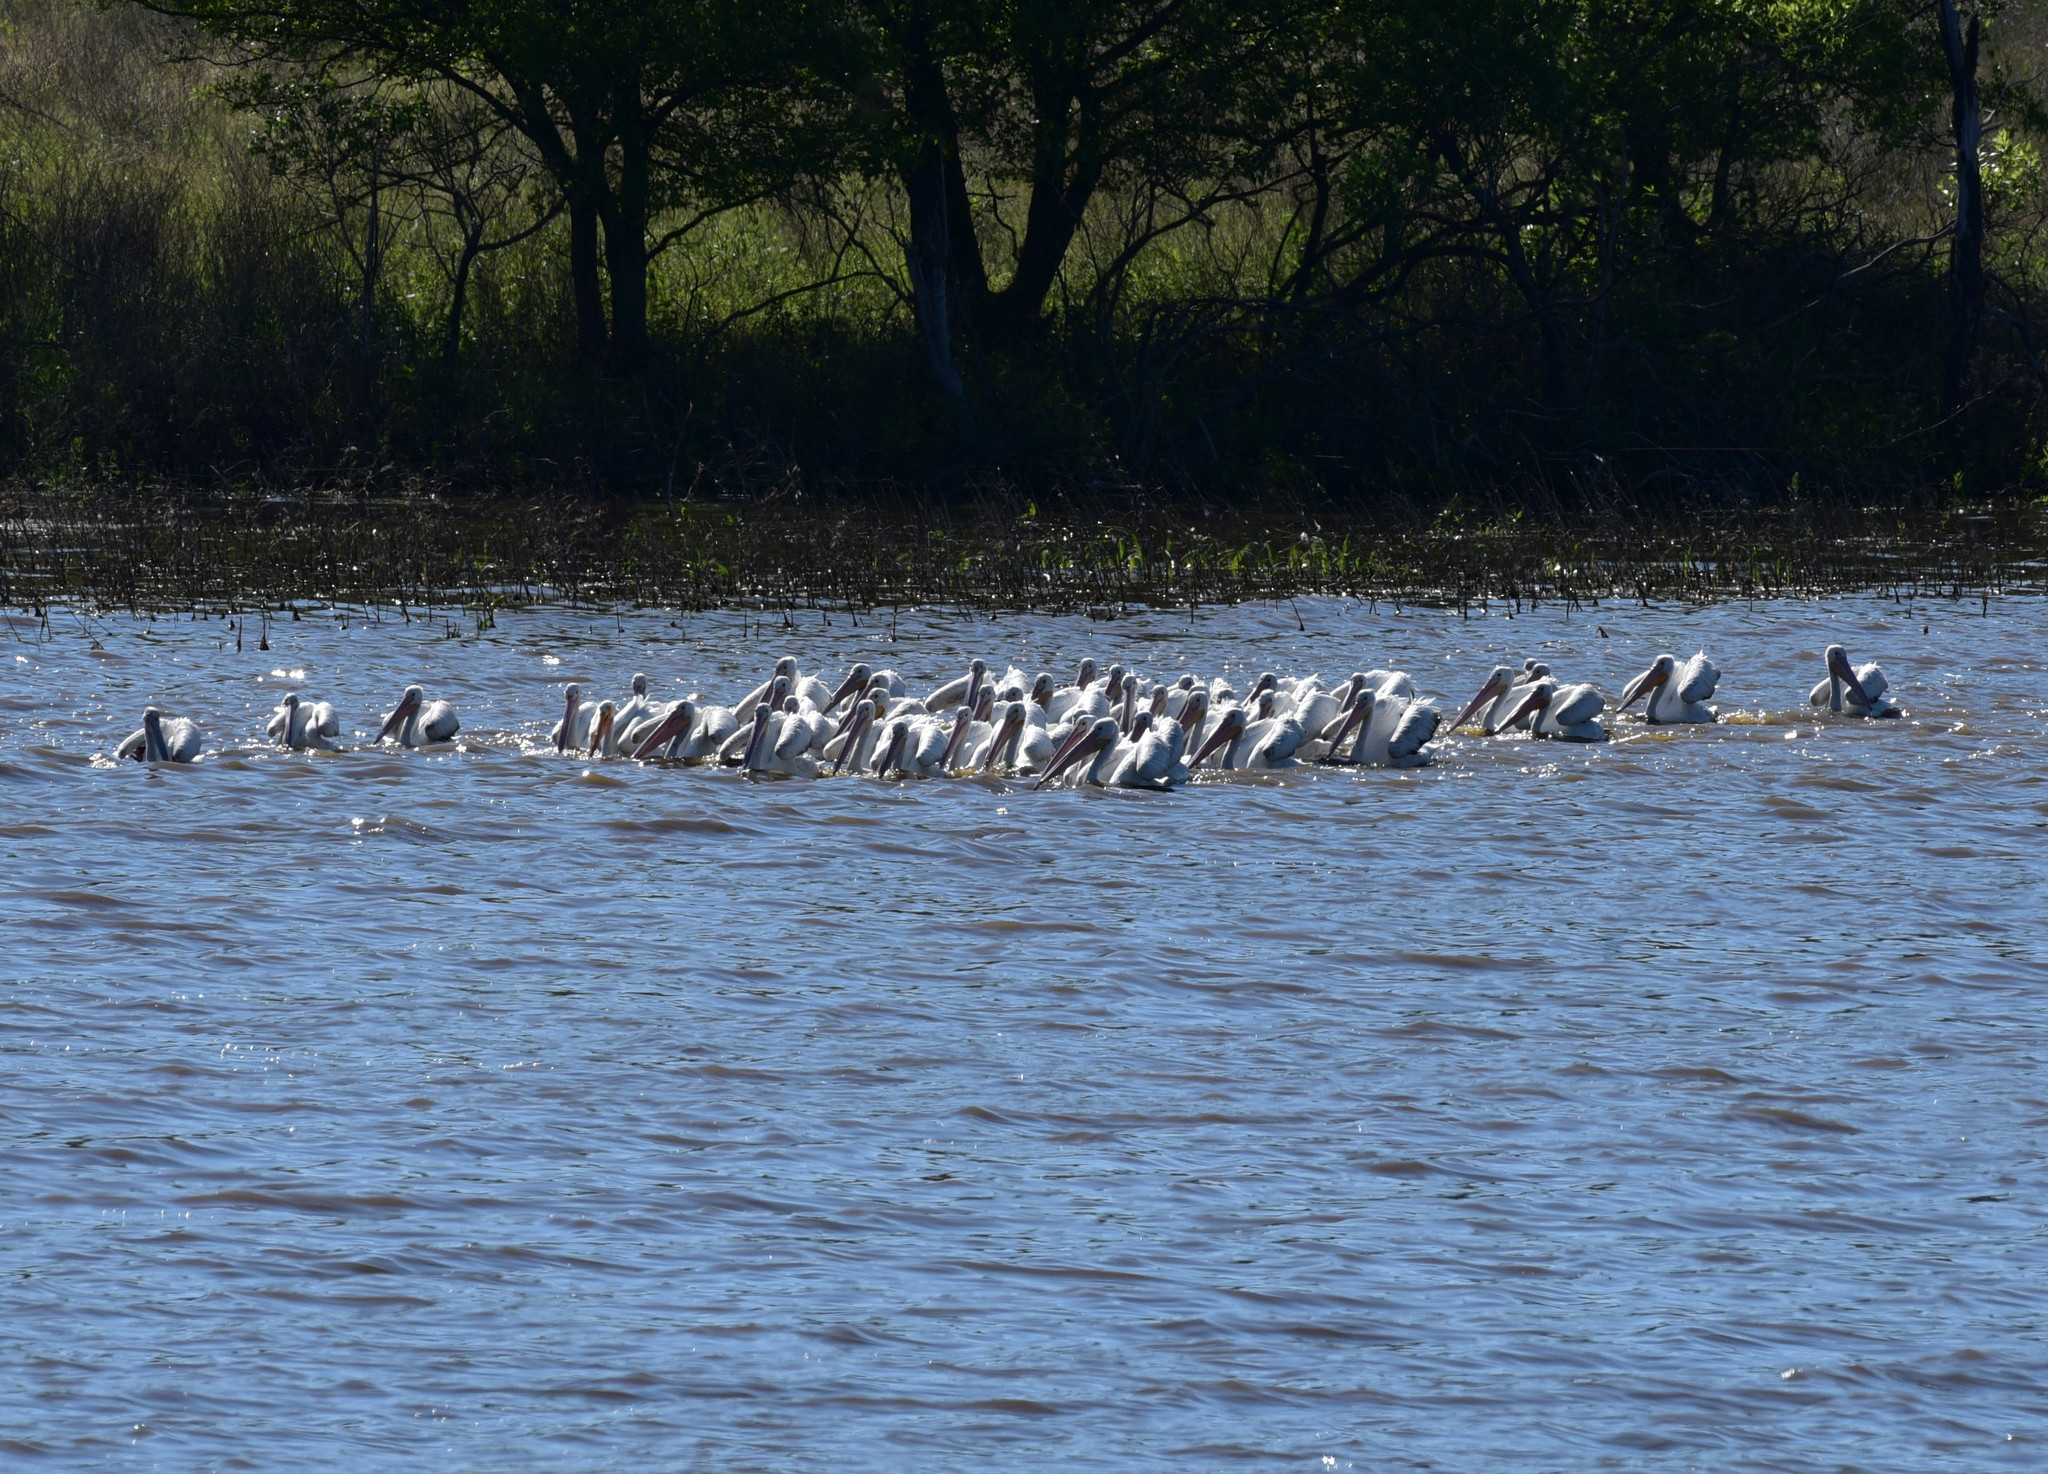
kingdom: Animalia
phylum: Chordata
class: Aves
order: Pelecaniformes
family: Pelecanidae
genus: Pelecanus
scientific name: Pelecanus erythrorhynchos
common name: American white pelican
